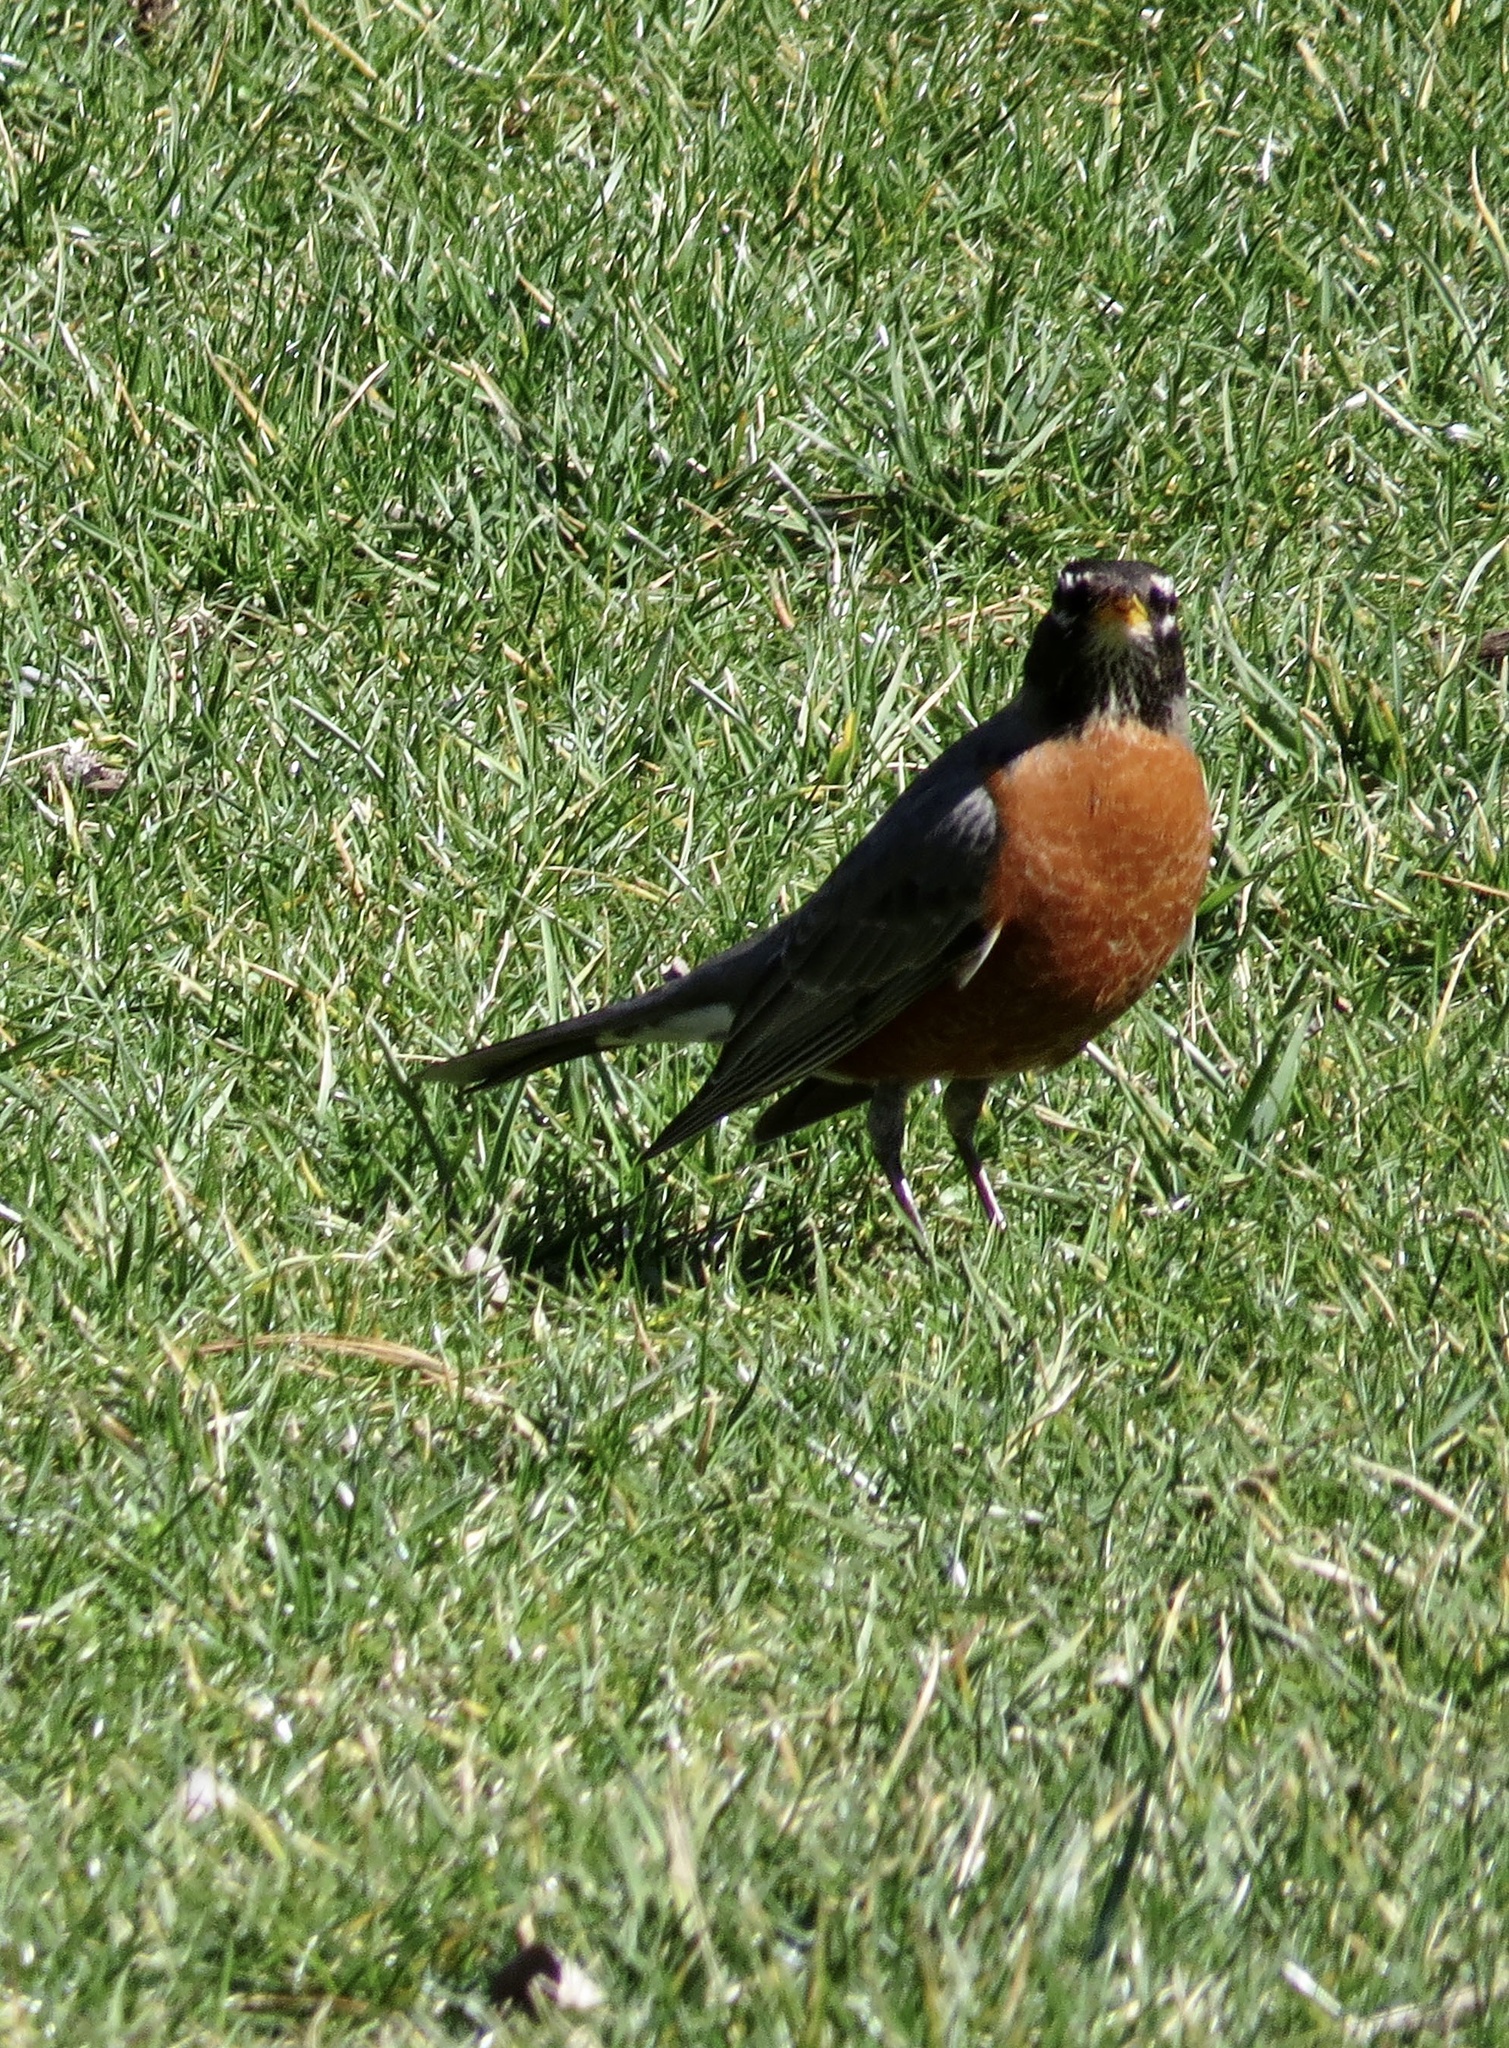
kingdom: Animalia
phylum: Chordata
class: Aves
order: Passeriformes
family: Turdidae
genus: Turdus
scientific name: Turdus migratorius
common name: American robin
